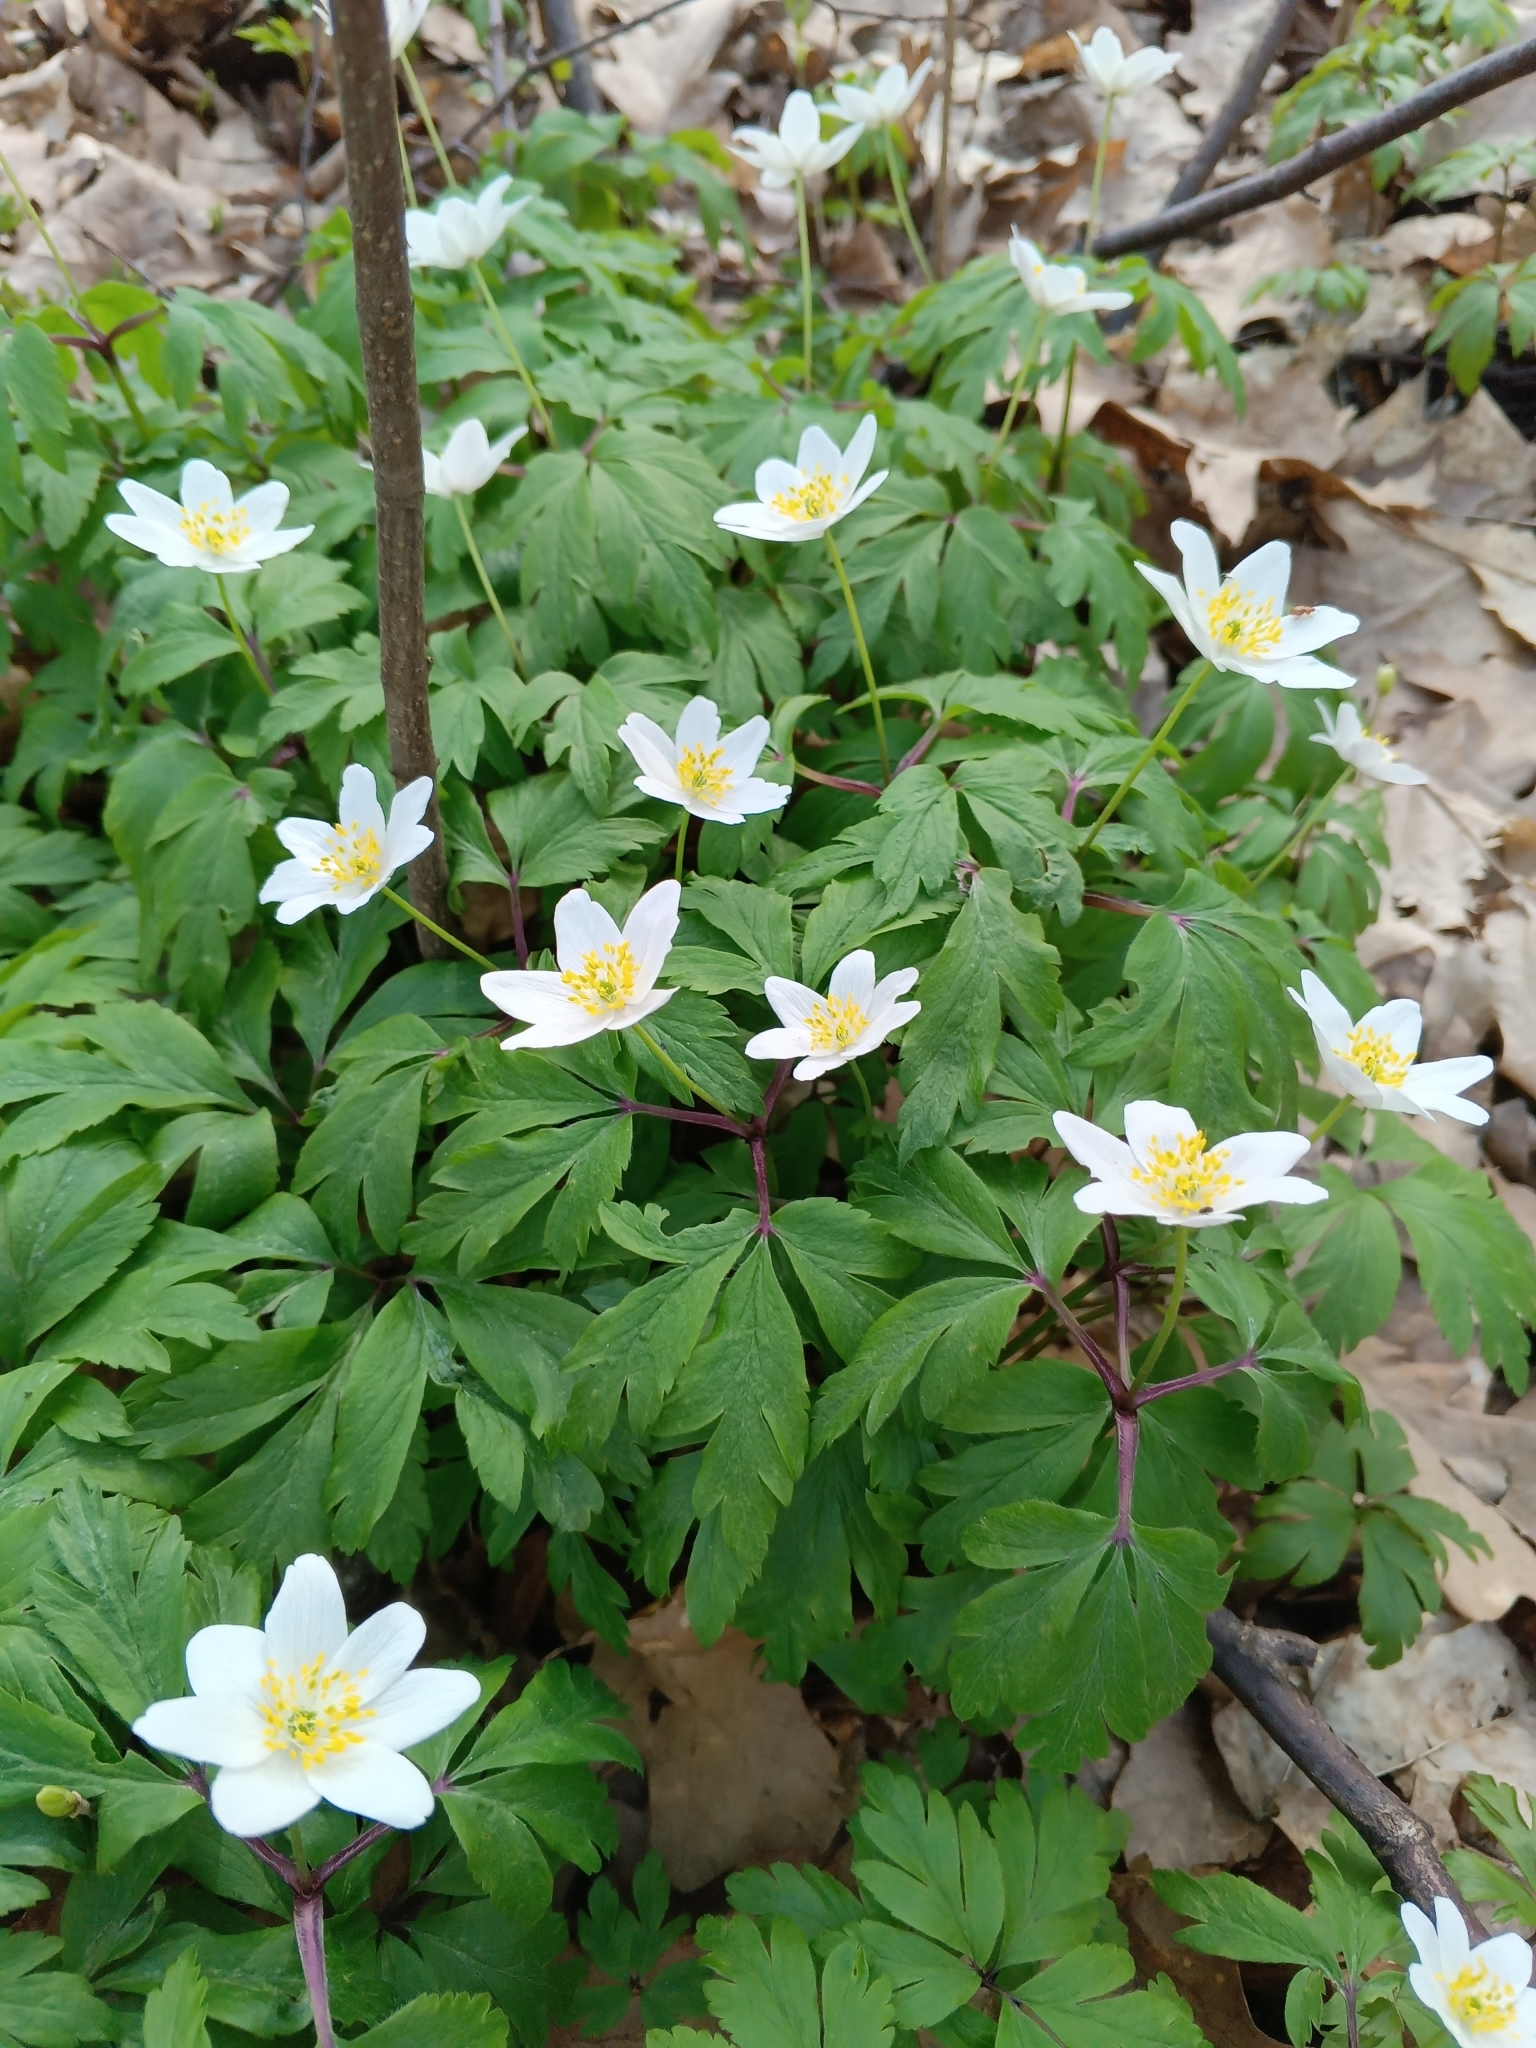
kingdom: Plantae
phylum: Tracheophyta
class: Magnoliopsida
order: Ranunculales
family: Ranunculaceae
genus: Anemone
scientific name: Anemone nemorosa
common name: Wood anemone
